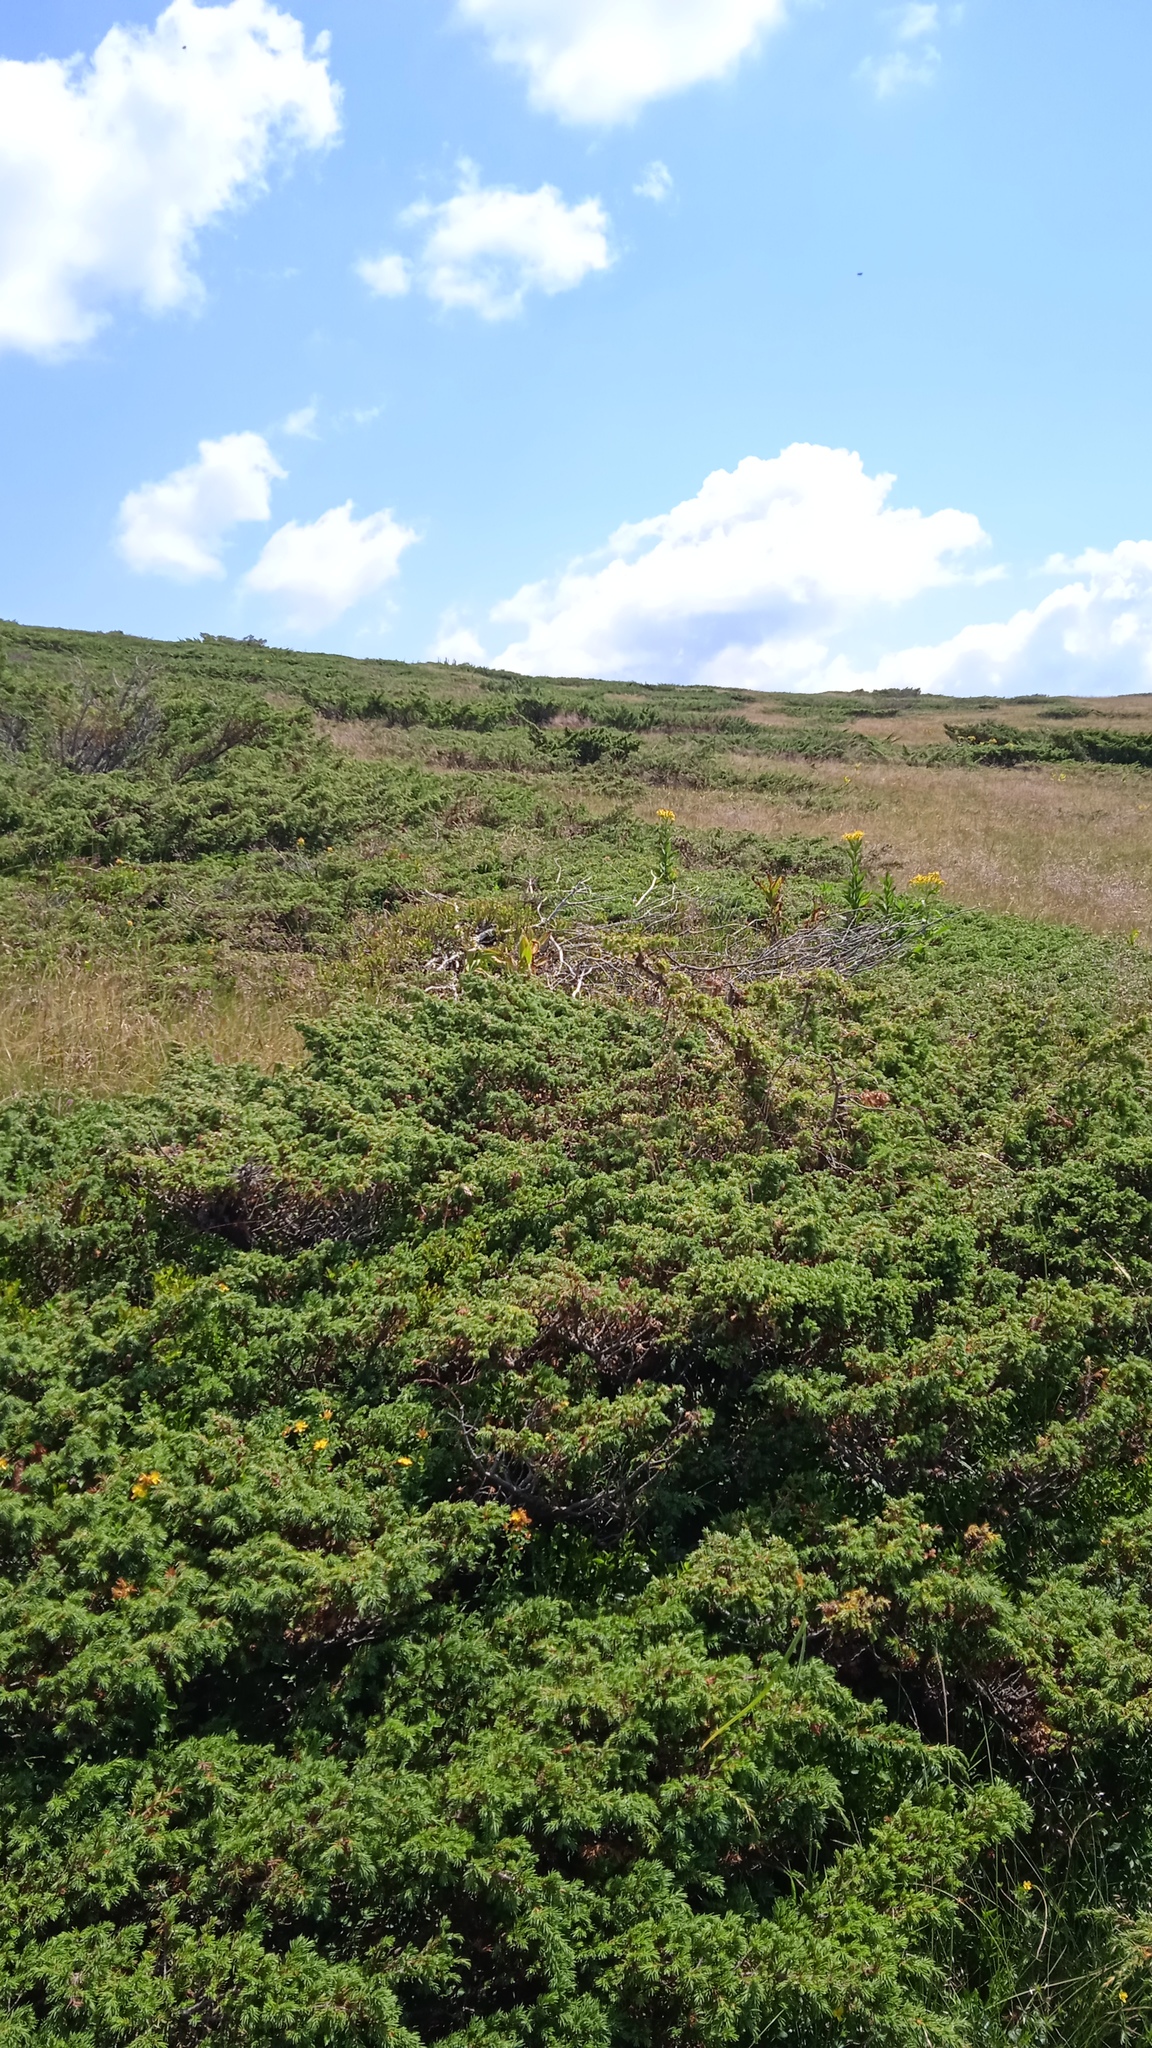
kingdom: Plantae
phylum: Tracheophyta
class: Pinopsida
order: Pinales
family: Cupressaceae
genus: Juniperus
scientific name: Juniperus communis
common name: Common juniper
